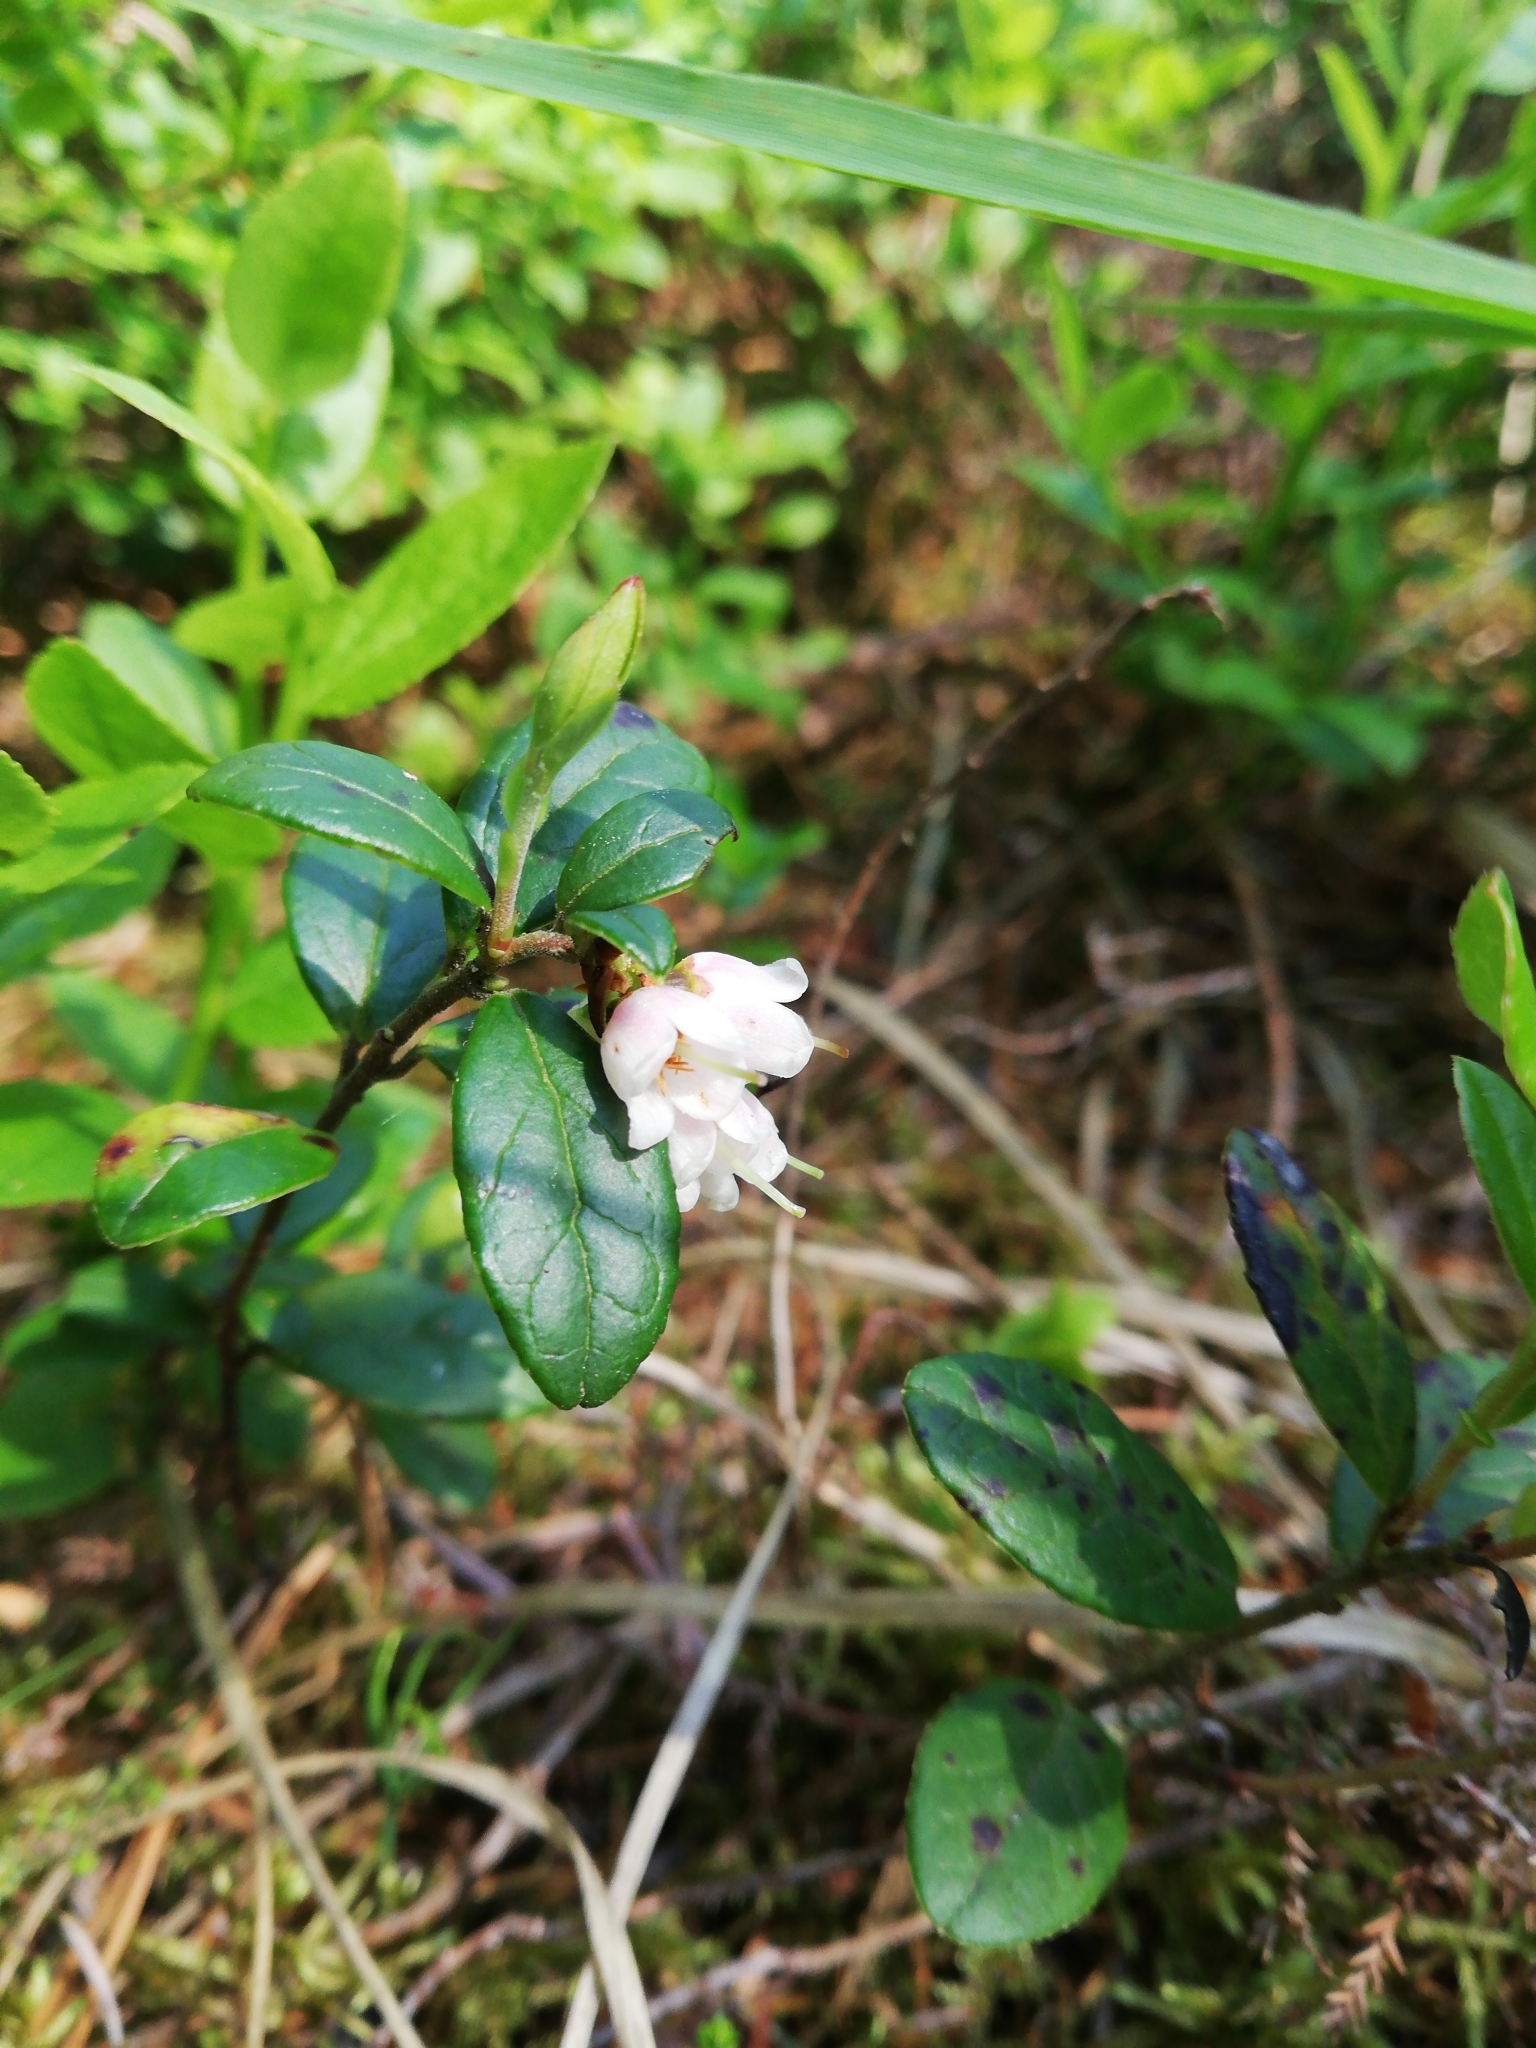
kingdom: Plantae
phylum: Tracheophyta
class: Magnoliopsida
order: Ericales
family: Ericaceae
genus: Vaccinium
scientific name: Vaccinium vitis-idaea
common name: Cowberry
